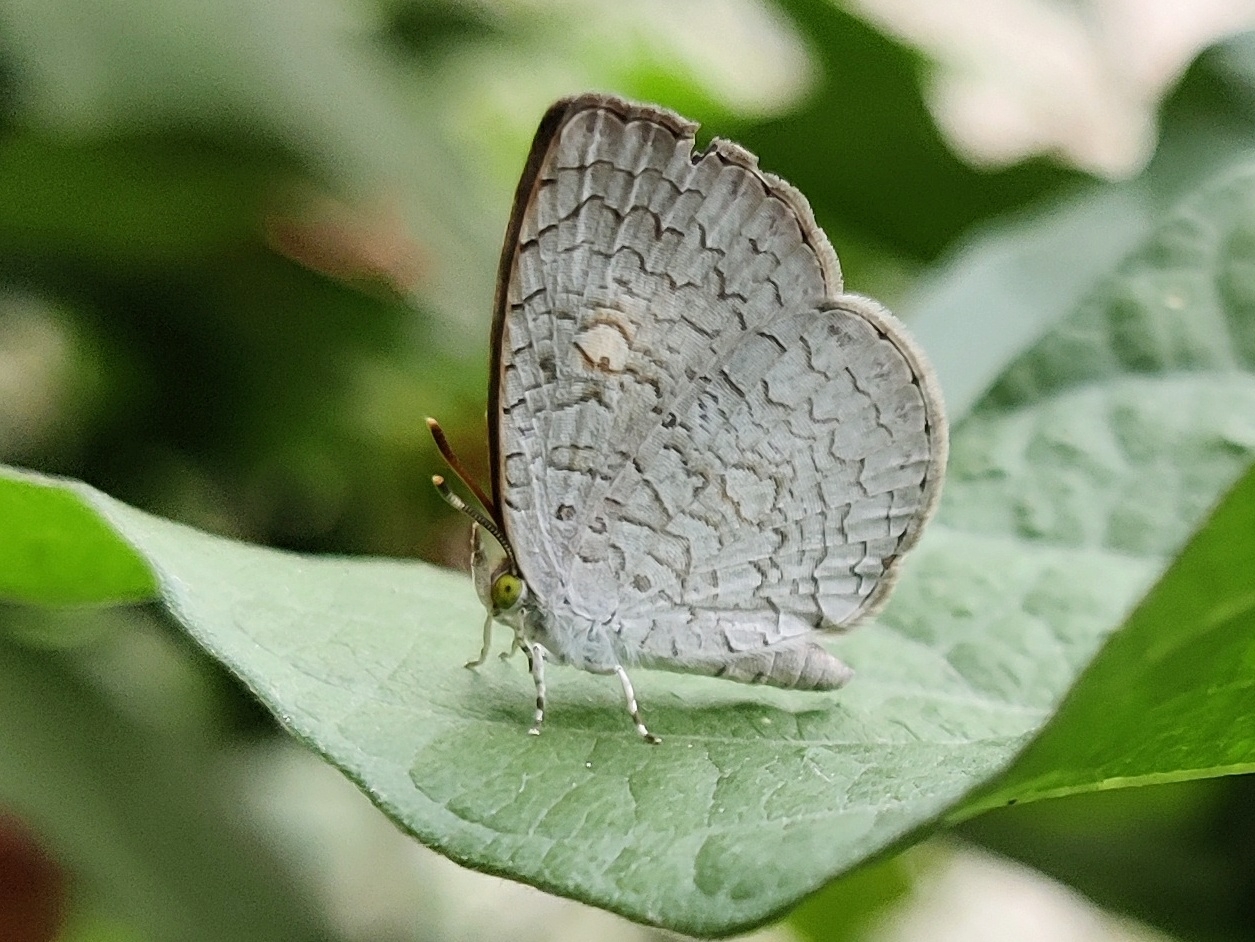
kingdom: Animalia
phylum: Arthropoda
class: Insecta
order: Lepidoptera
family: Lycaenidae
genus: Spalgis
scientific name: Spalgis epius
